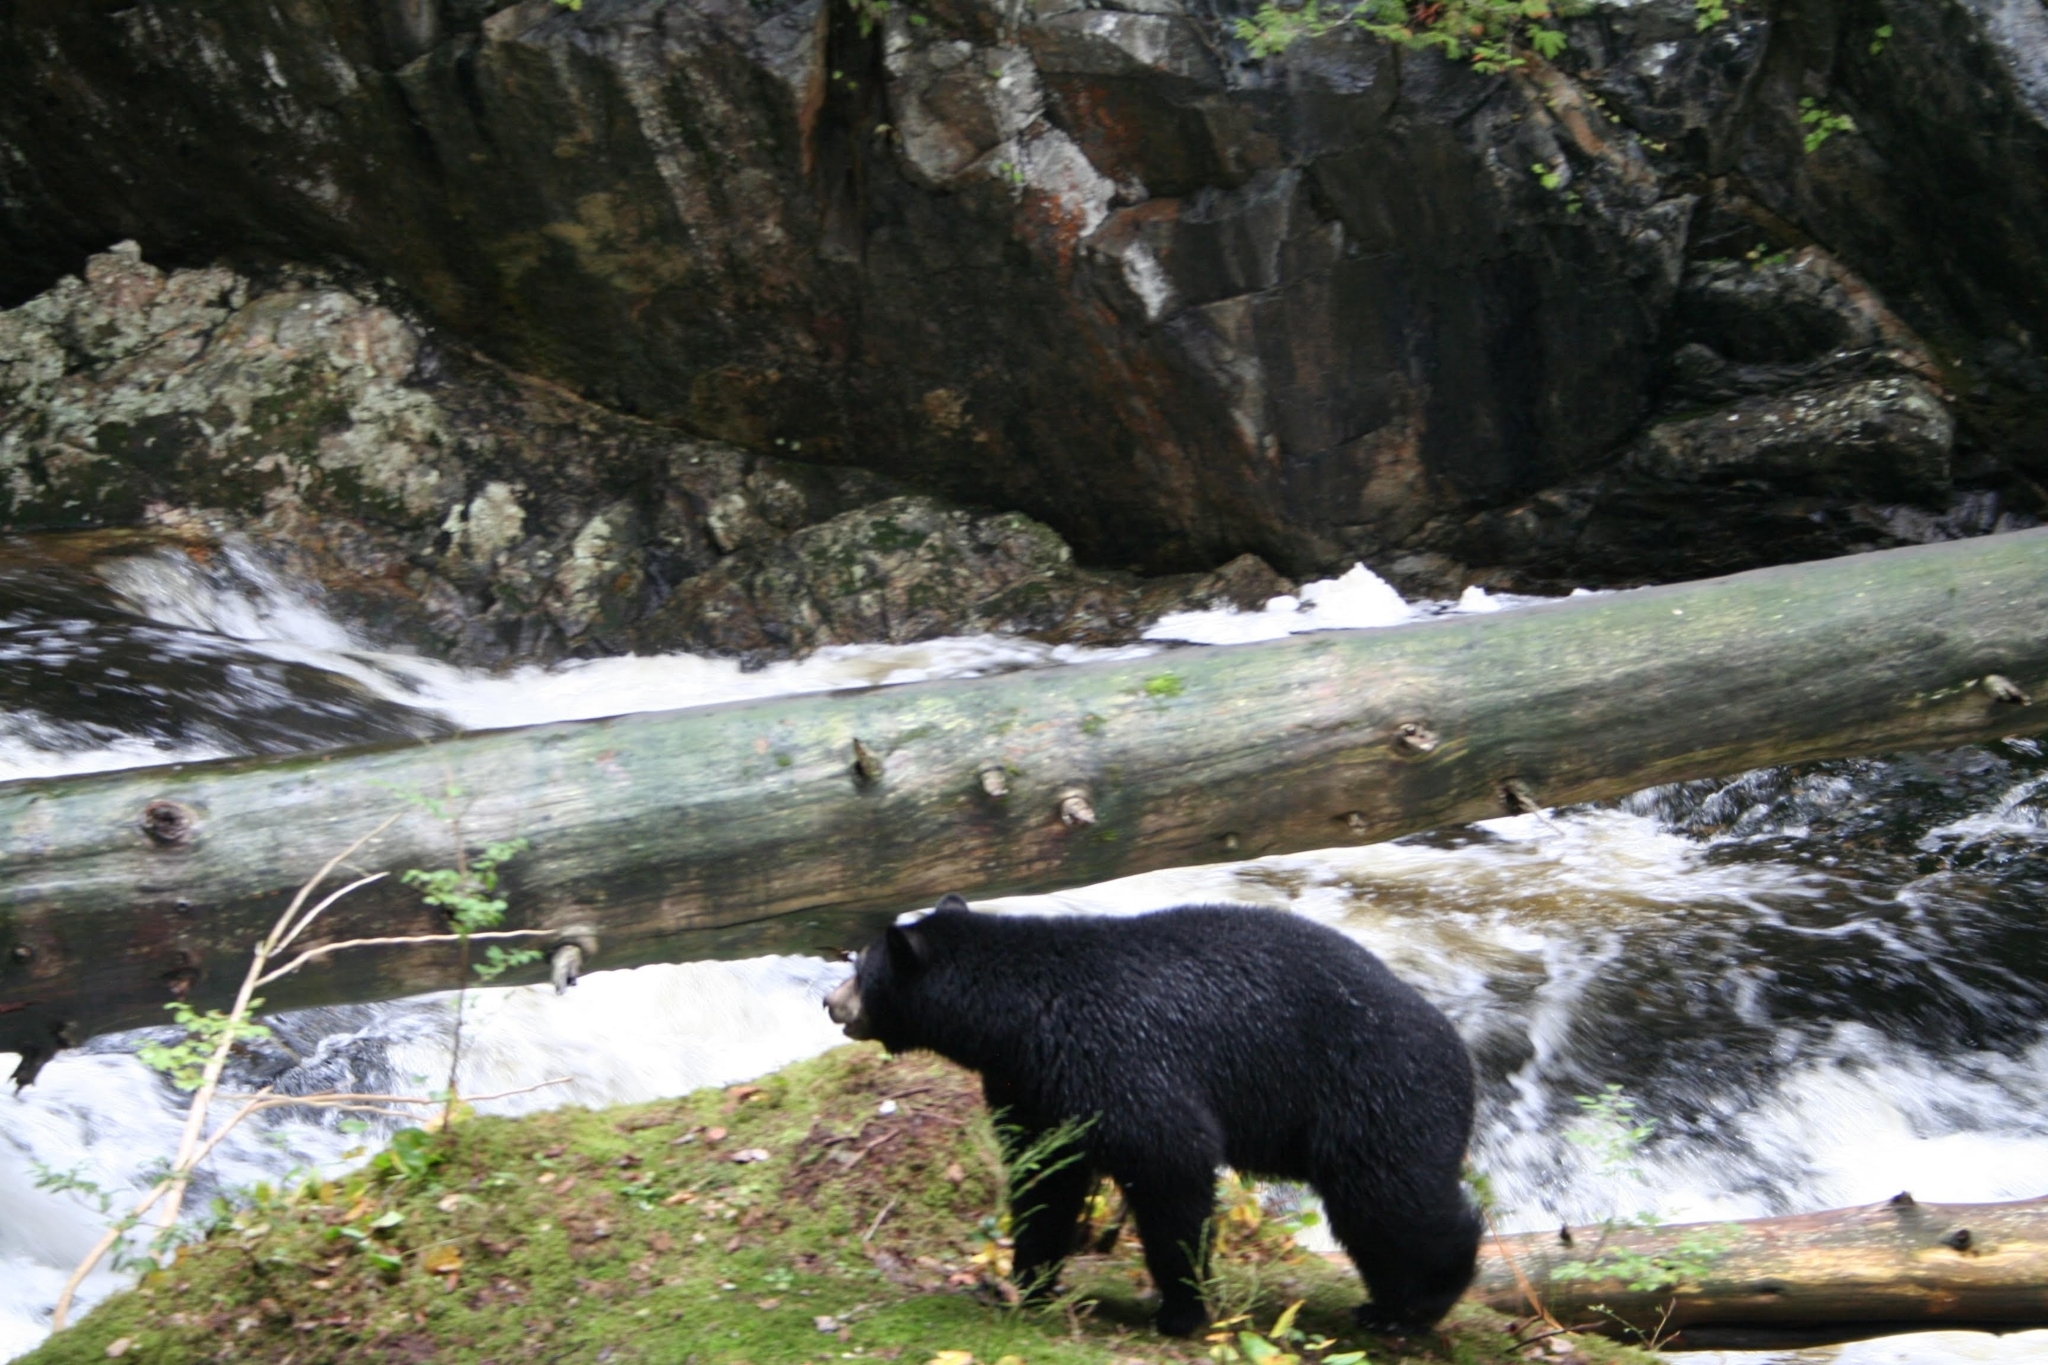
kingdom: Animalia
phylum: Chordata
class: Mammalia
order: Carnivora
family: Ursidae
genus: Ursus
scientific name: Ursus americanus
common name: American black bear
